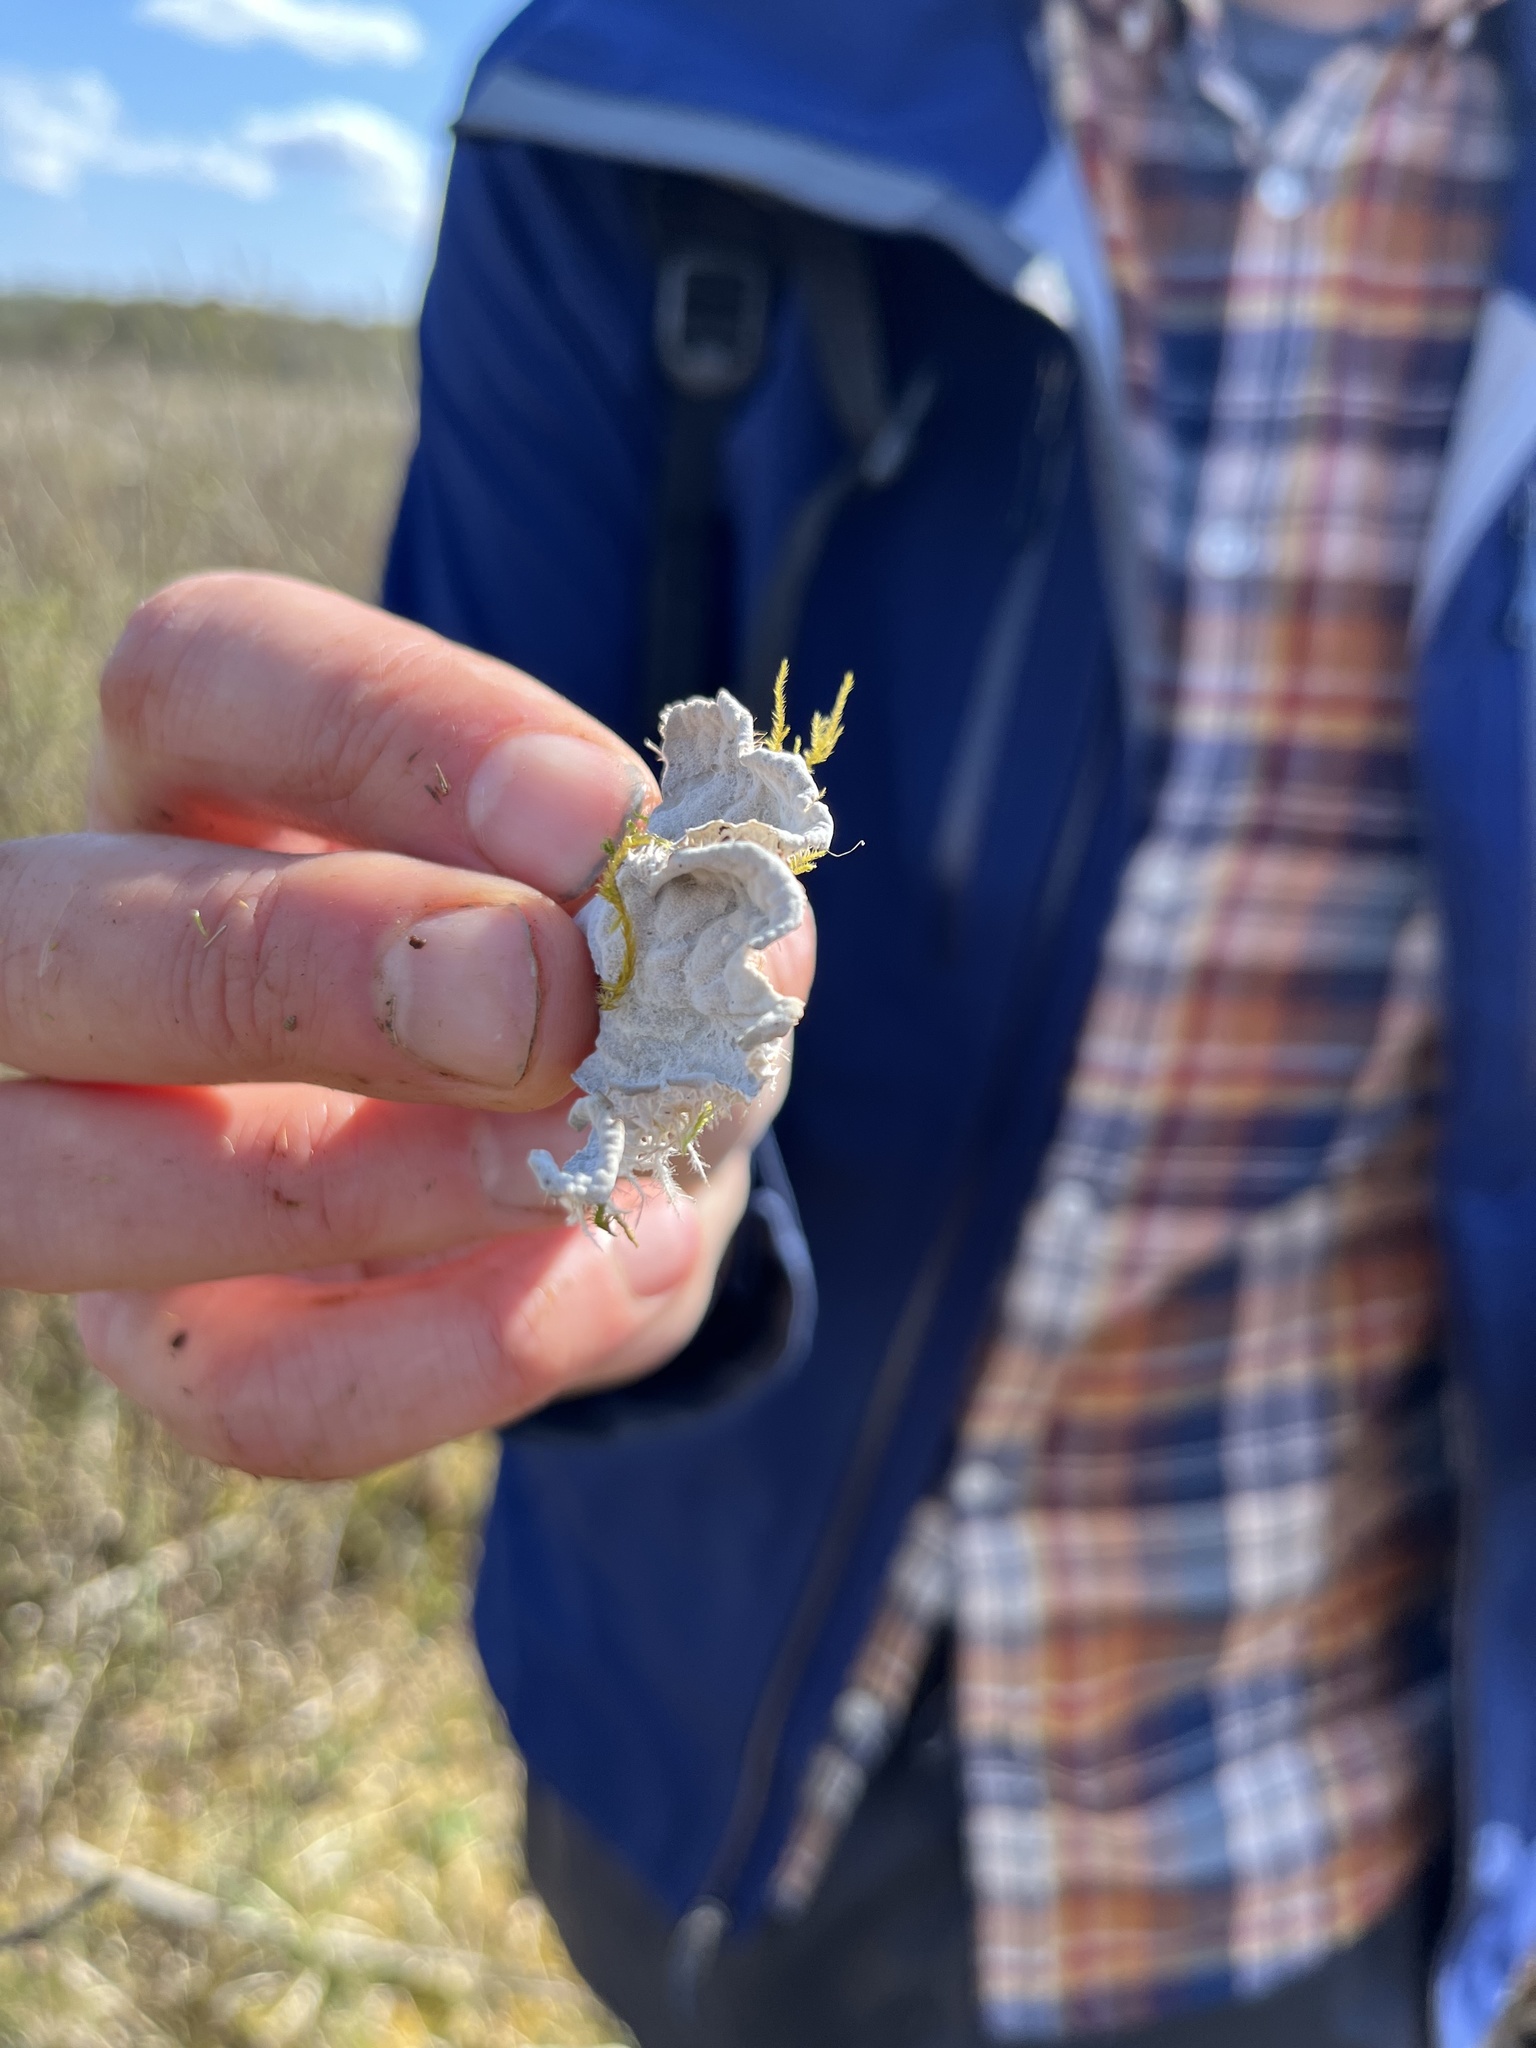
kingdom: Fungi
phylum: Ascomycota
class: Lecanoromycetes
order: Peltigerales
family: Peltigeraceae
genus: Peltigera
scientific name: Peltigera canina
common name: Dog pelt lichen
